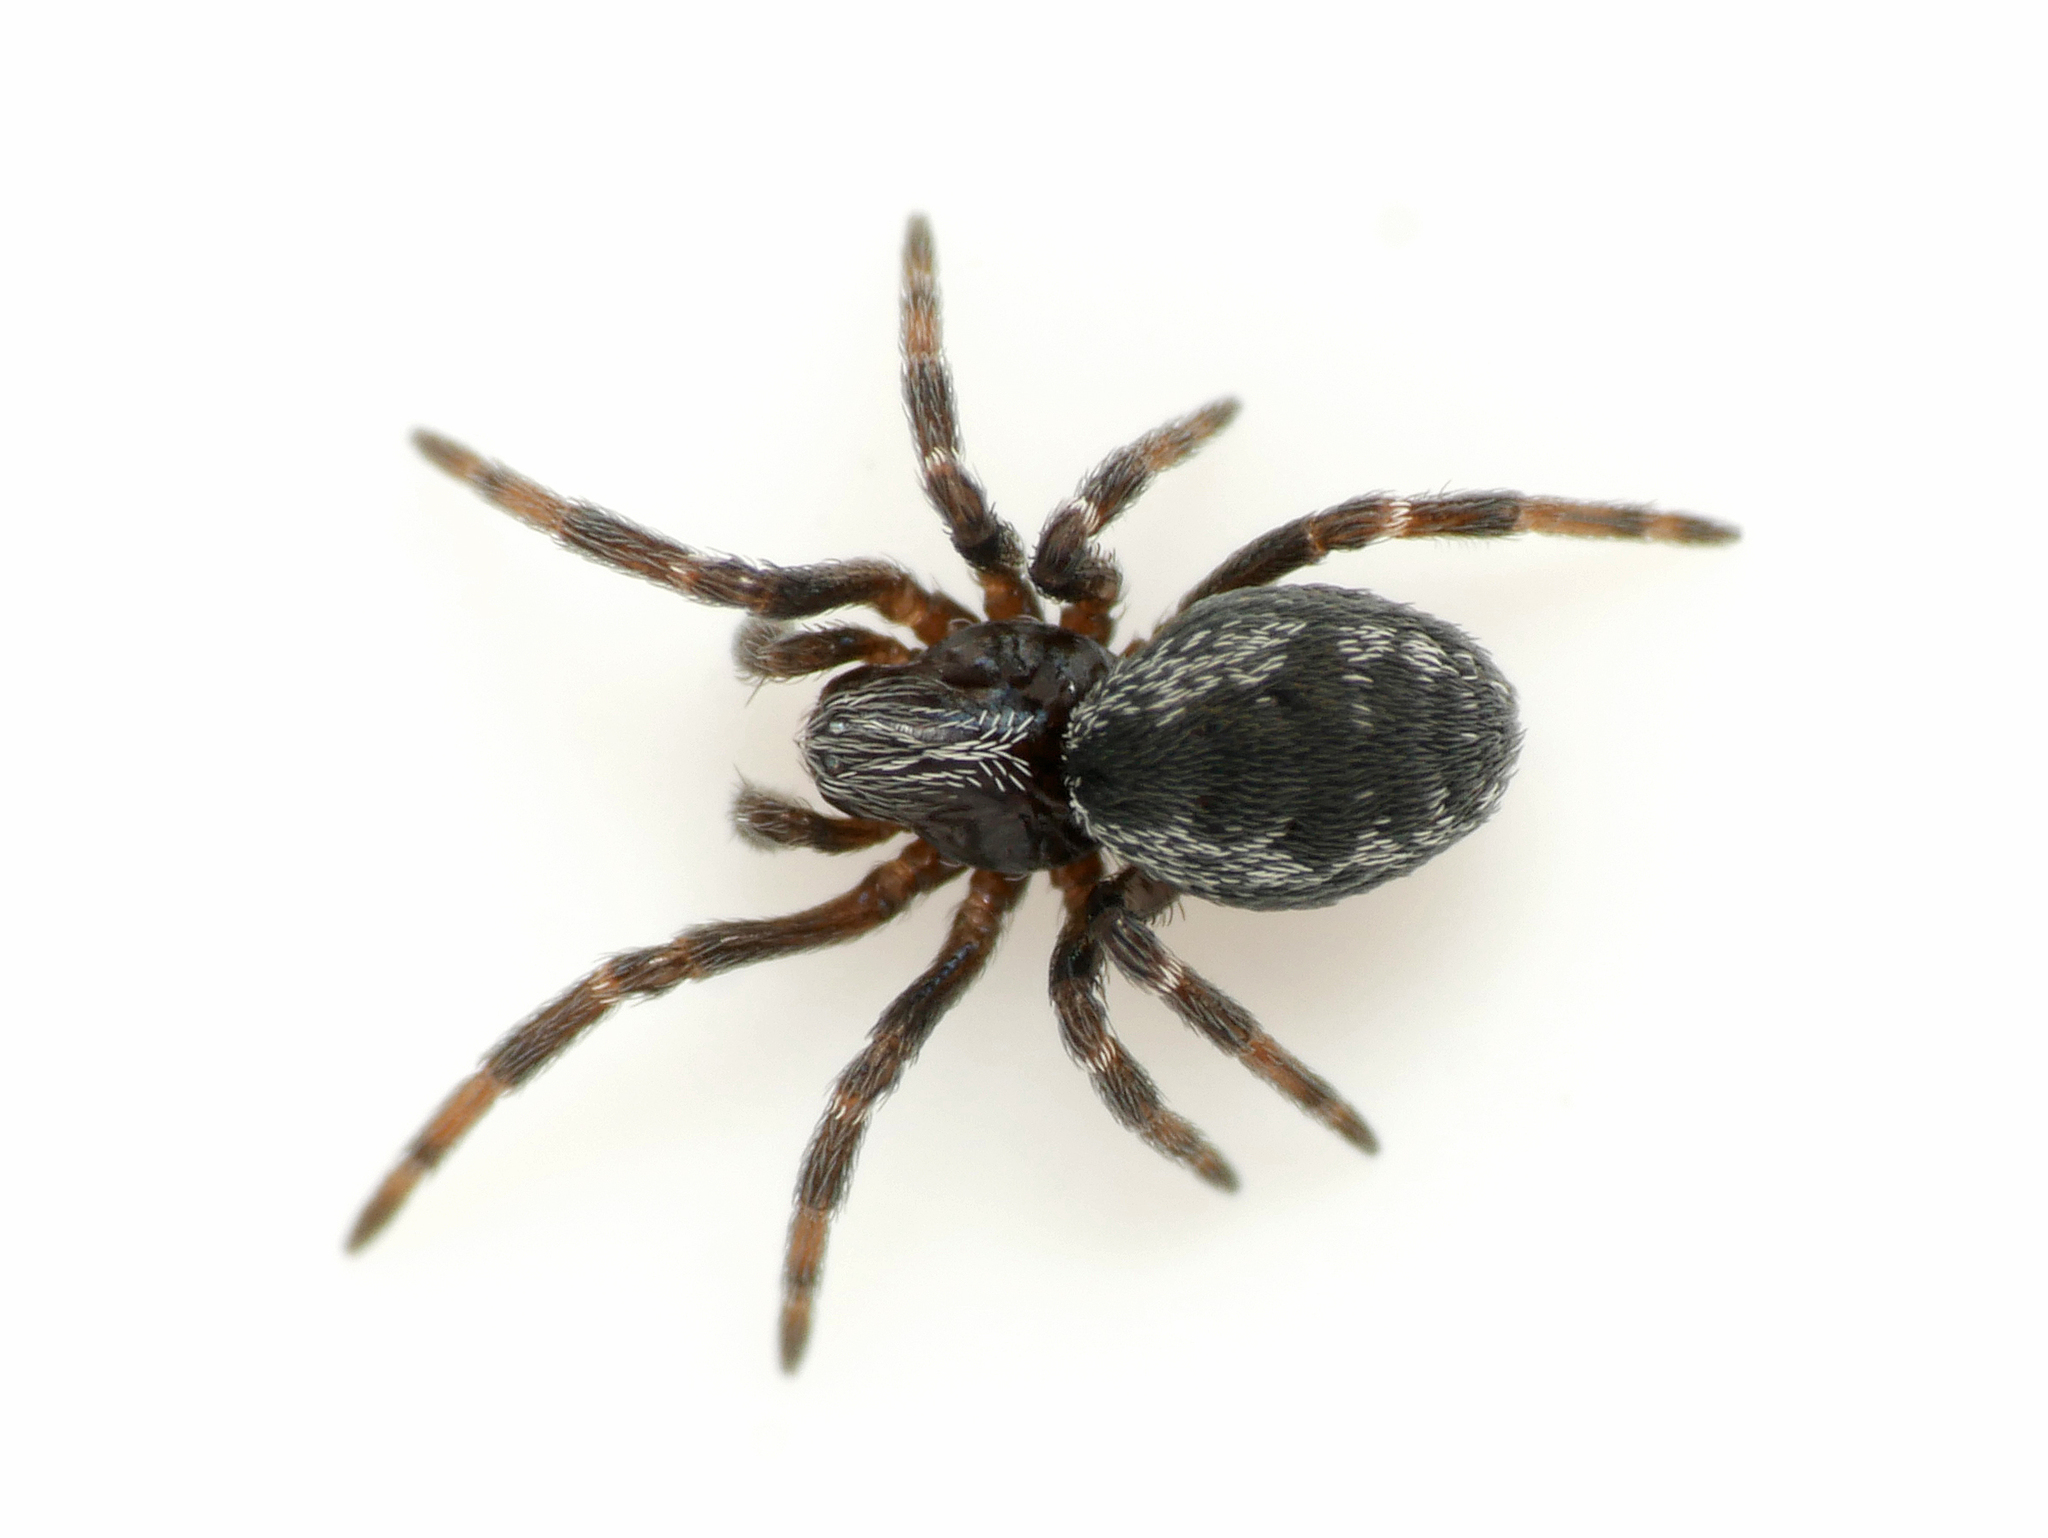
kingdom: Animalia
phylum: Arthropoda
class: Arachnida
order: Araneae
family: Dictynidae
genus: Brigittea
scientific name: Brigittea latens
